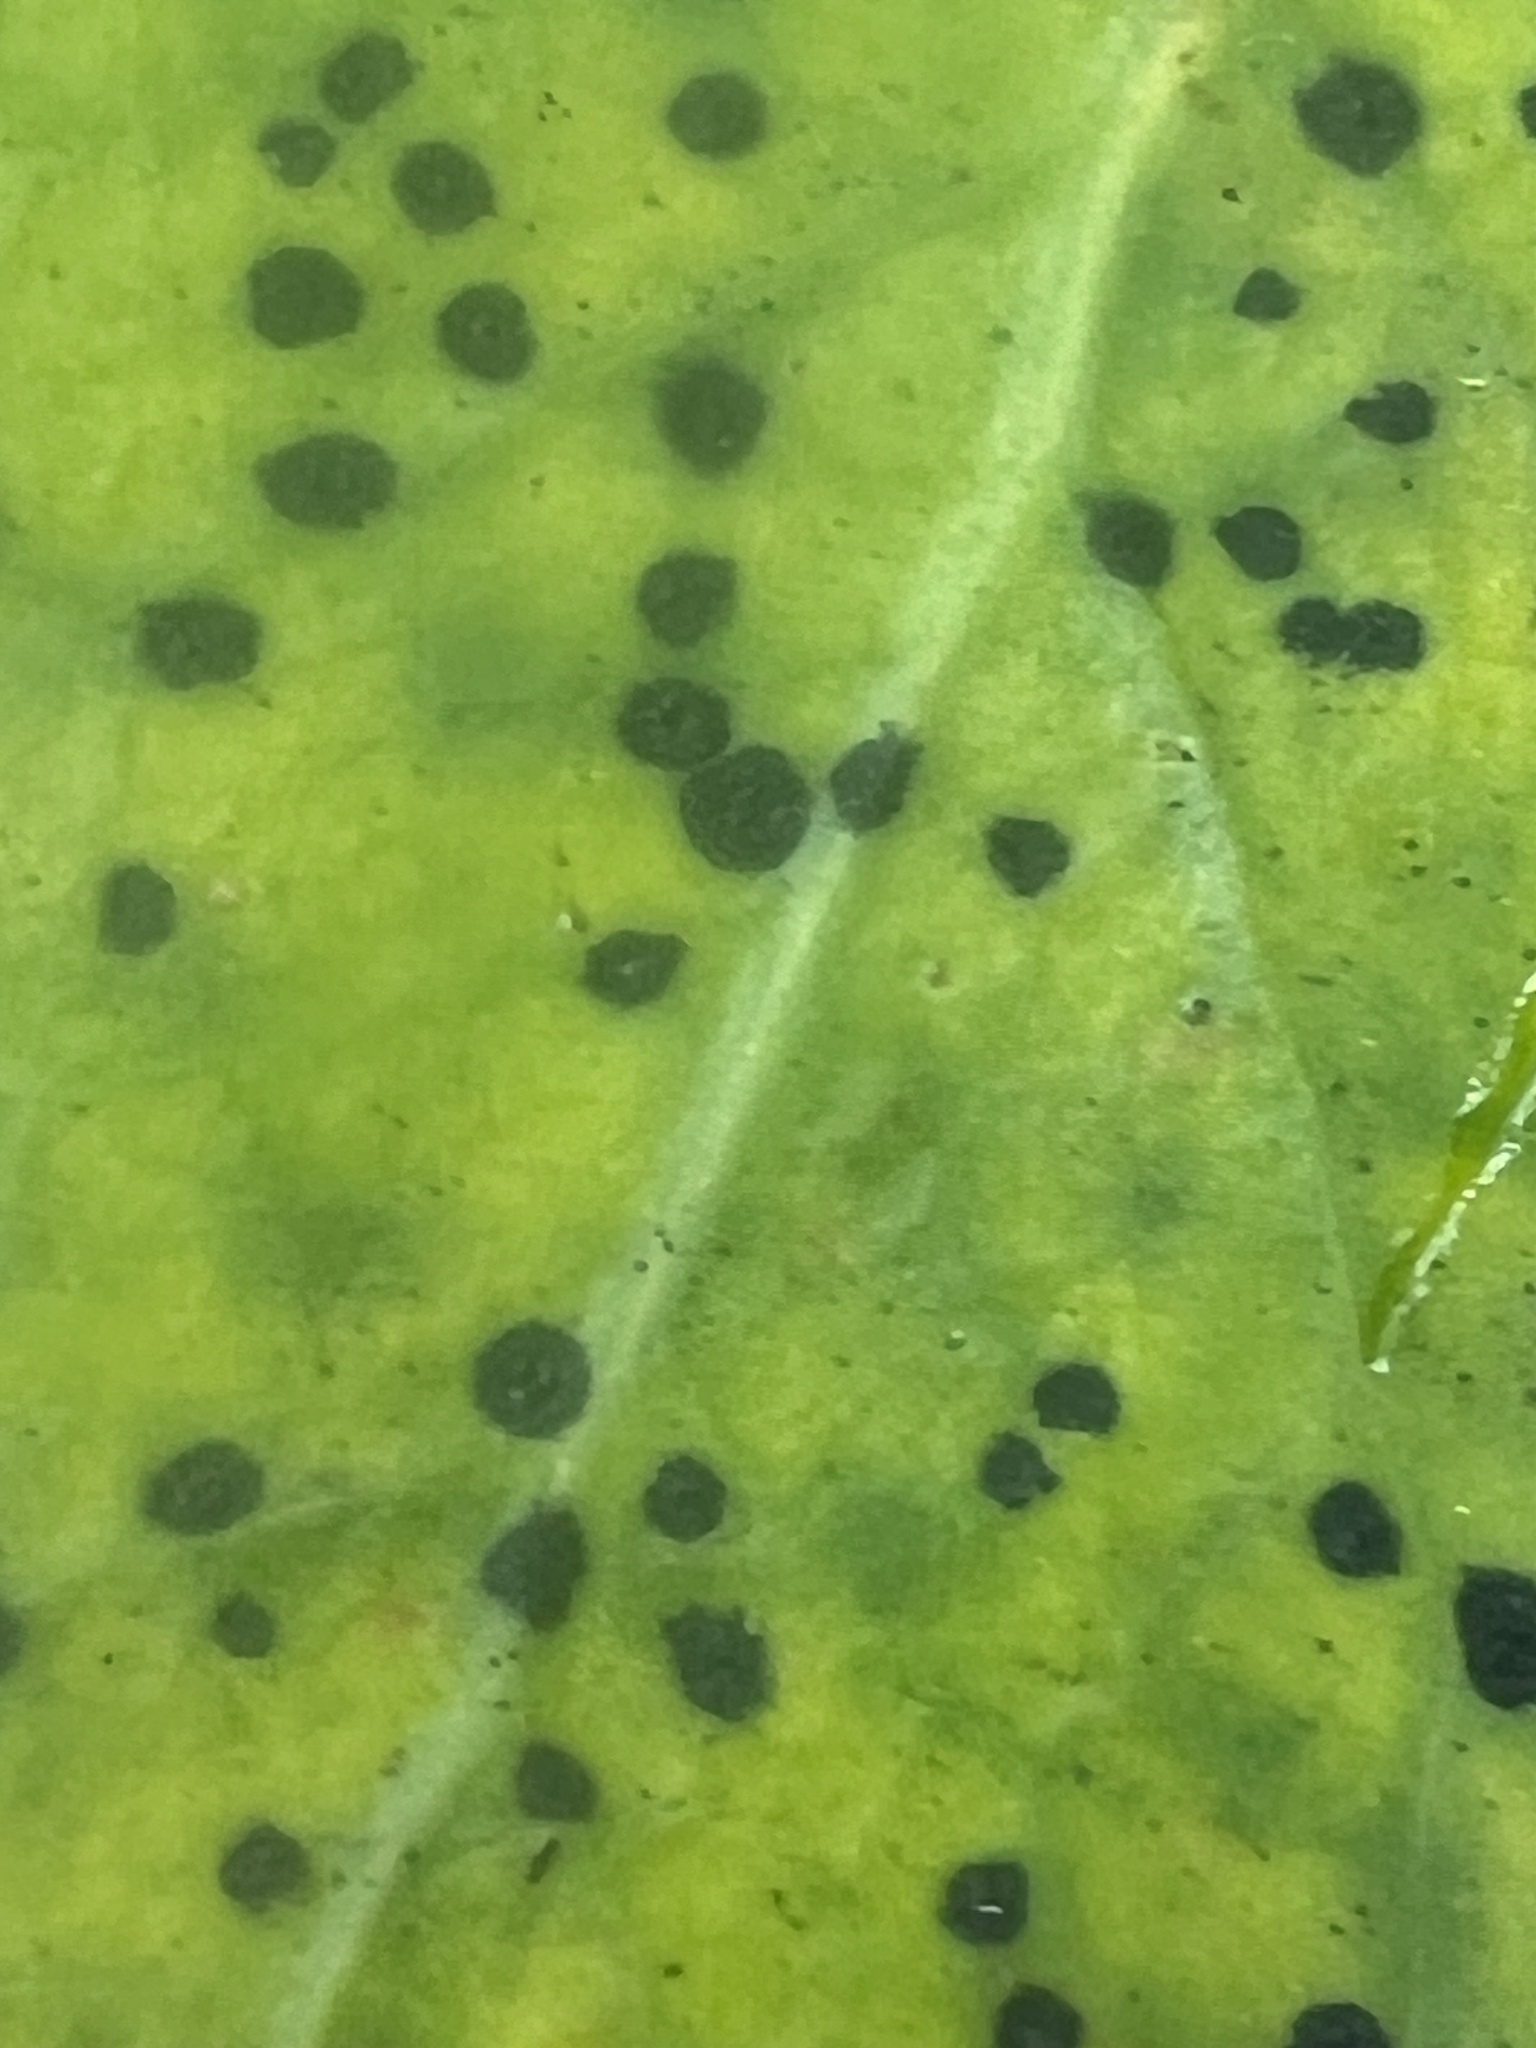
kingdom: Fungi
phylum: Ascomycota
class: Dothideomycetes
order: Asterinales
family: Asterinaceae
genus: Placosoma
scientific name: Placosoma nothopanacis
